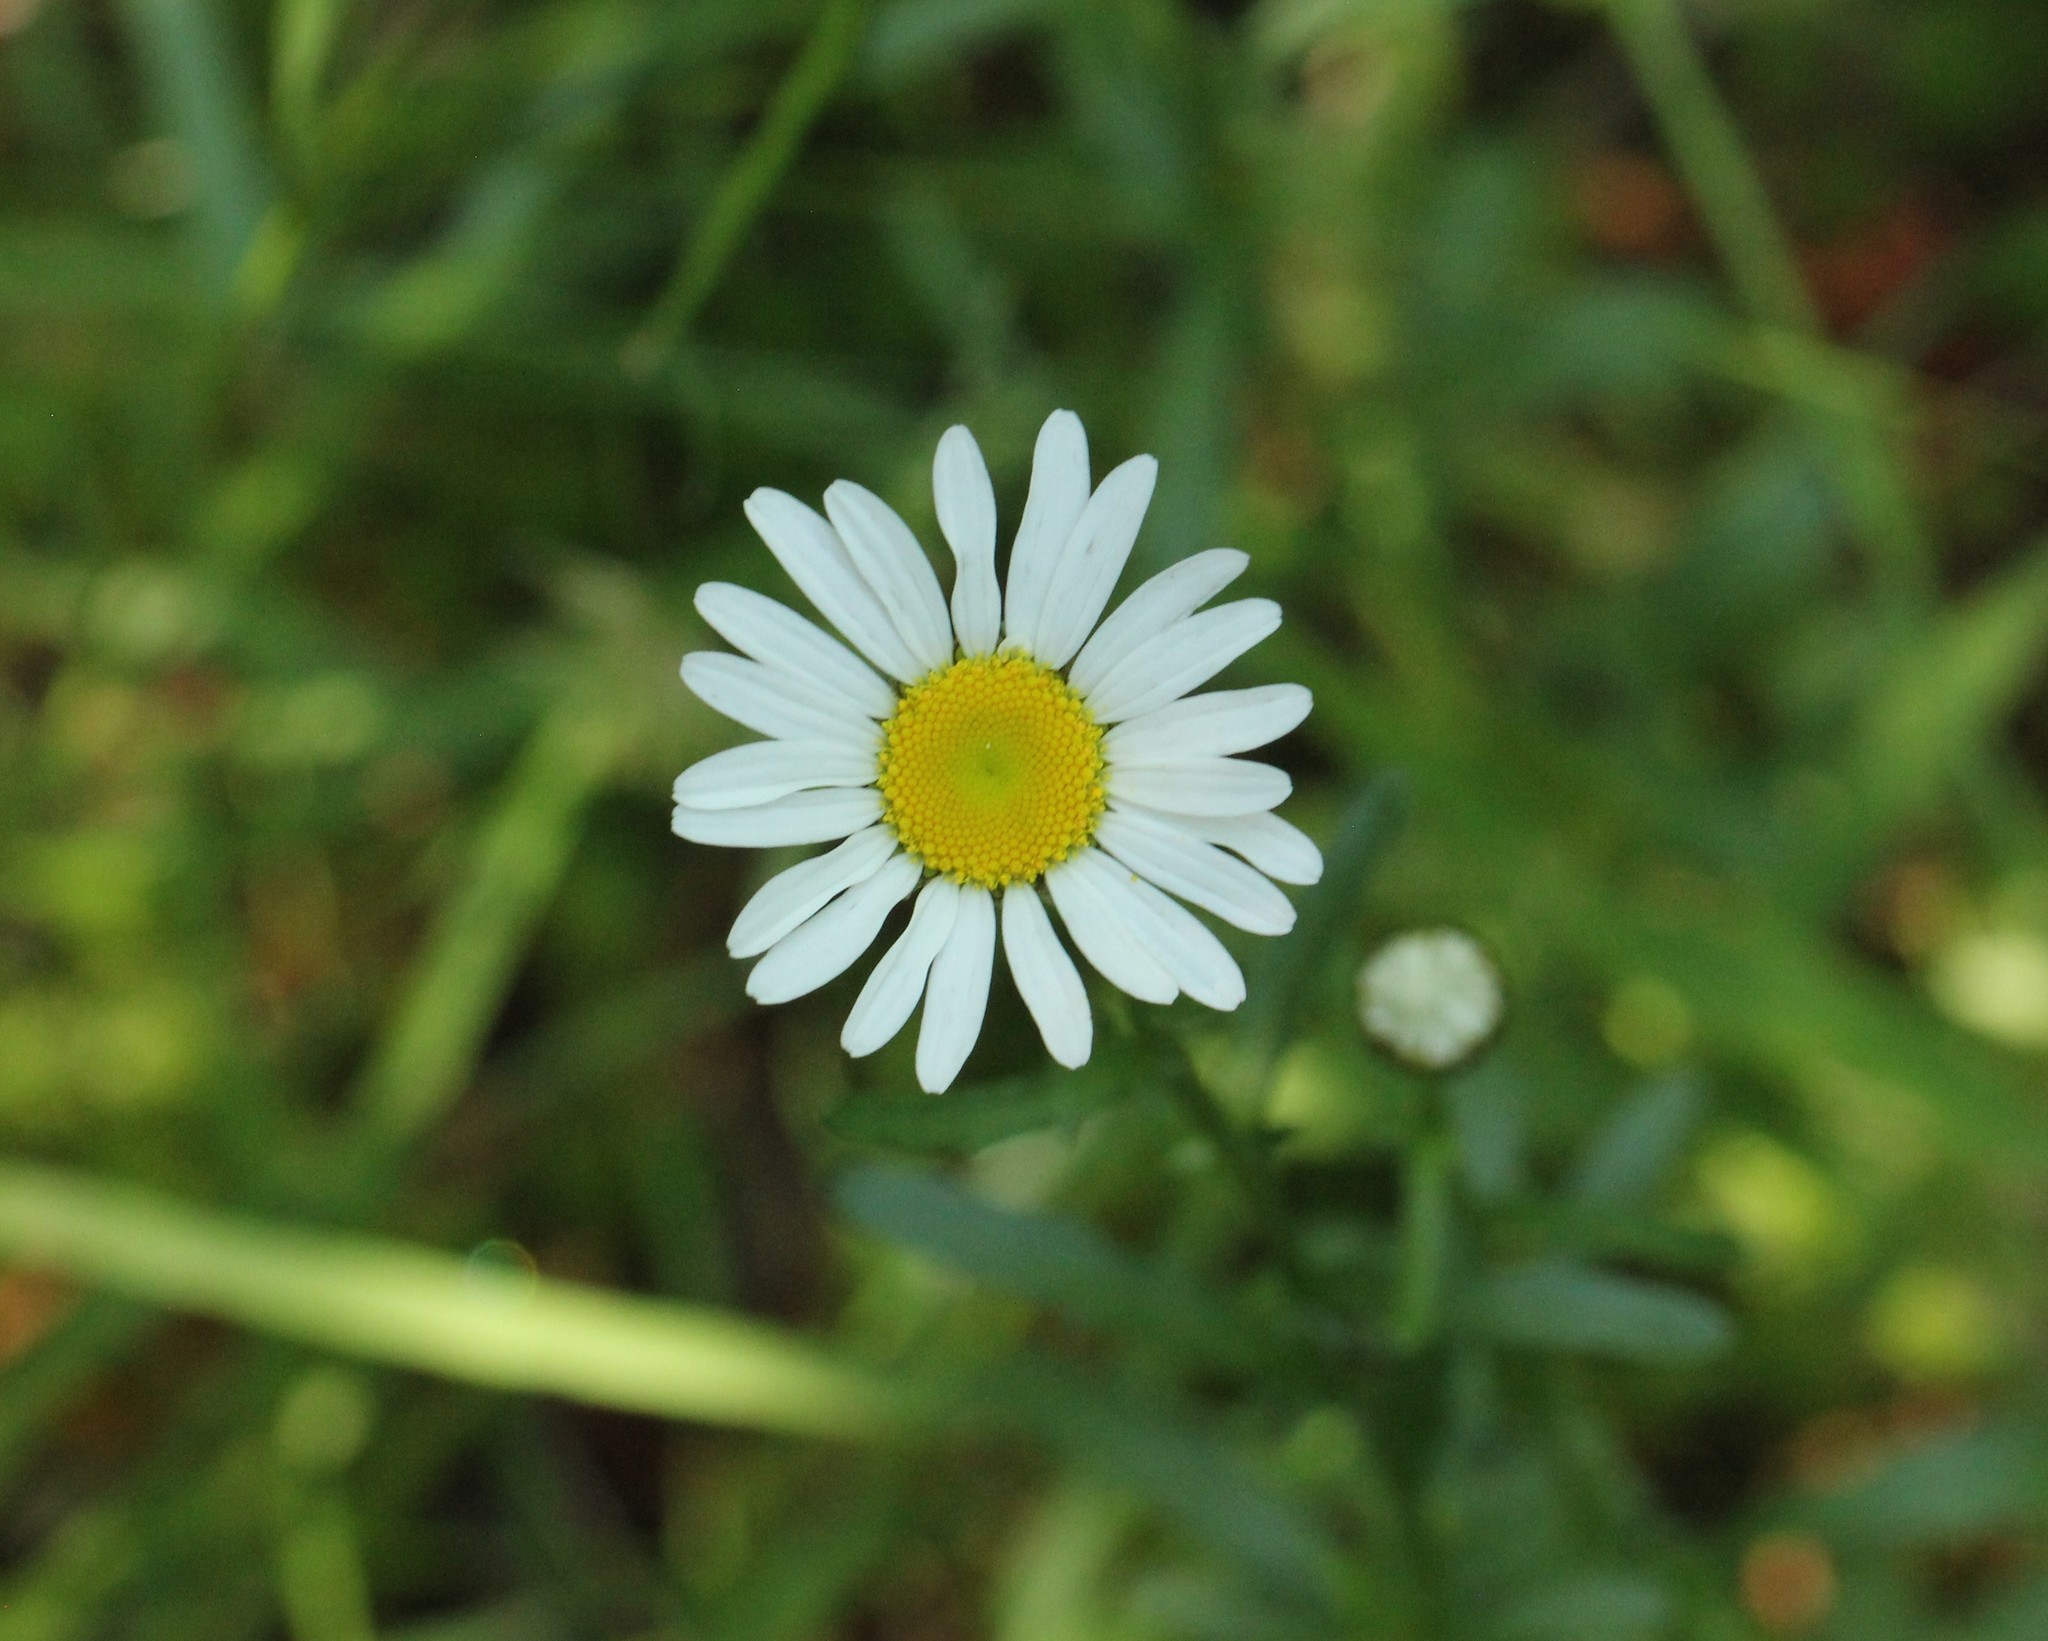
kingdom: Plantae
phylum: Tracheophyta
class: Magnoliopsida
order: Asterales
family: Asteraceae
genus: Leucanthemum
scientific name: Leucanthemum vulgare
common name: Oxeye daisy
